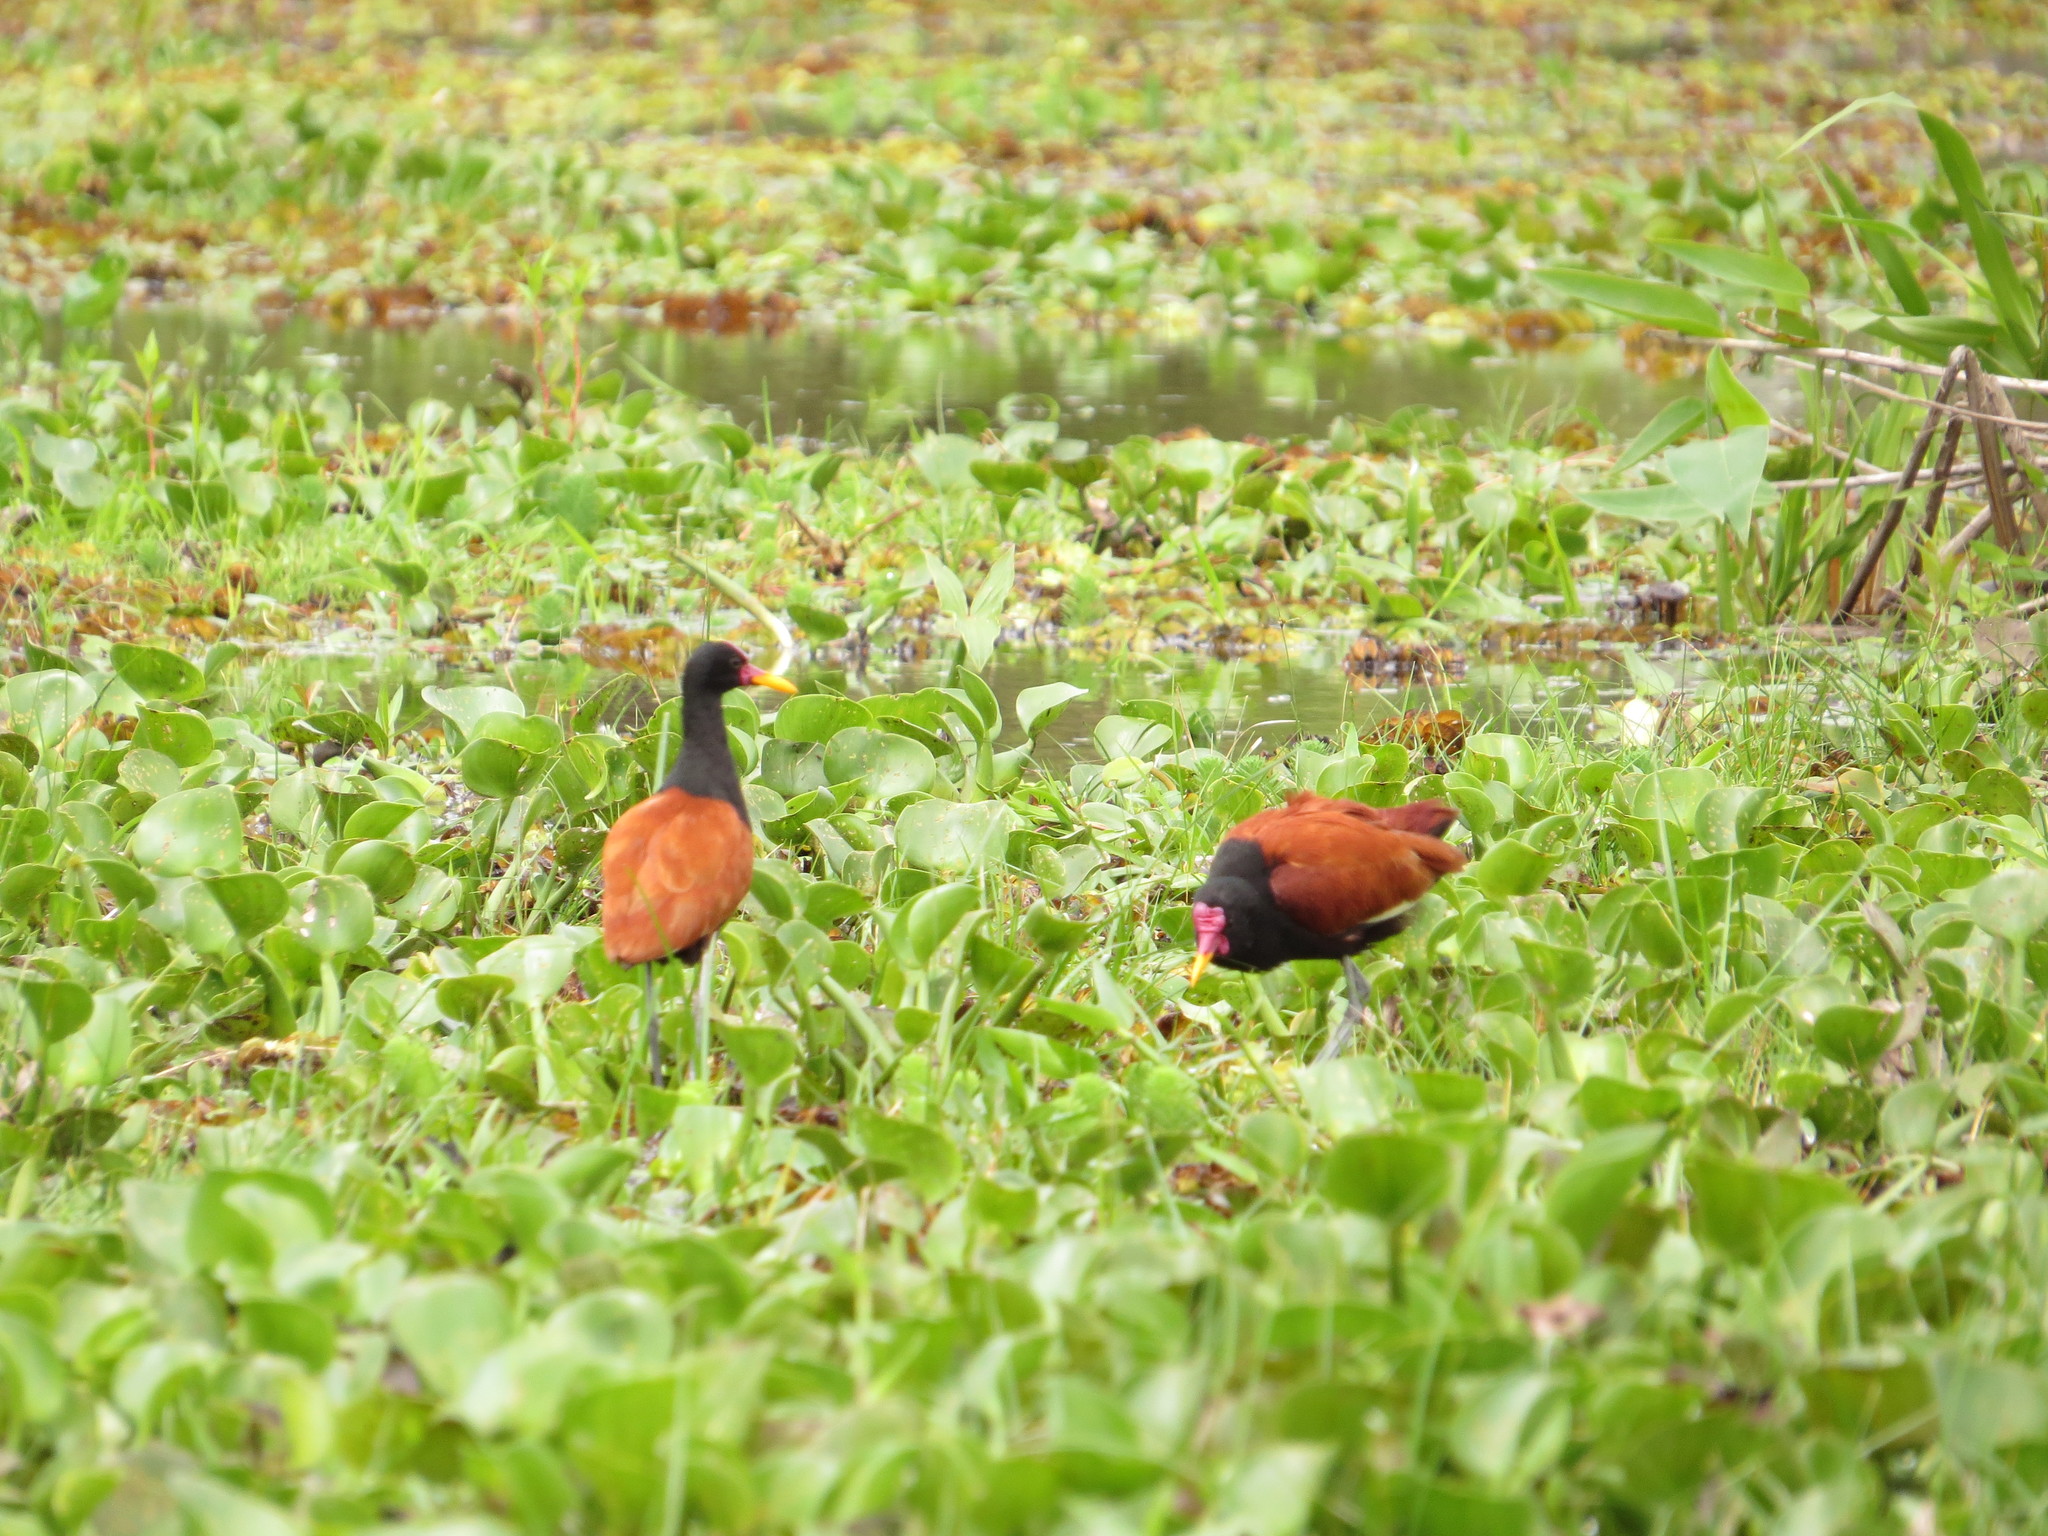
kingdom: Animalia
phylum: Chordata
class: Aves
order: Charadriiformes
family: Jacanidae
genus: Jacana
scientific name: Jacana jacana
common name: Wattled jacana
